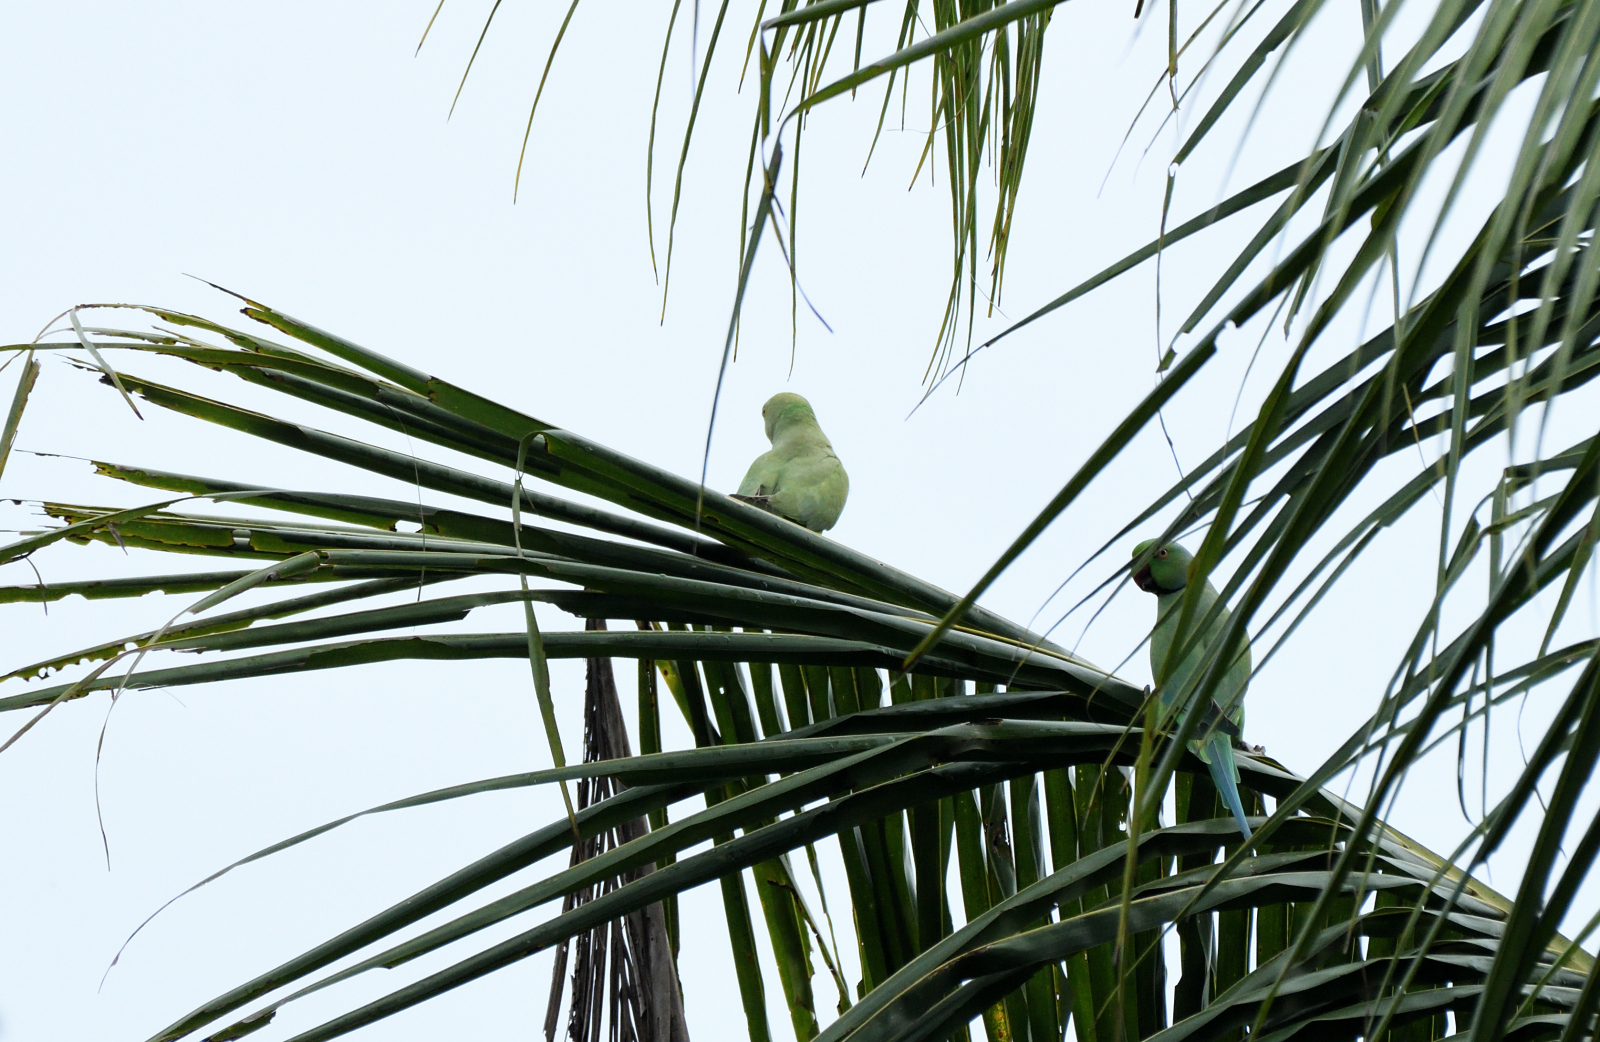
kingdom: Animalia
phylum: Chordata
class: Aves
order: Psittaciformes
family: Psittacidae
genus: Psittacula
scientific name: Psittacula krameri
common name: Rose-ringed parakeet
